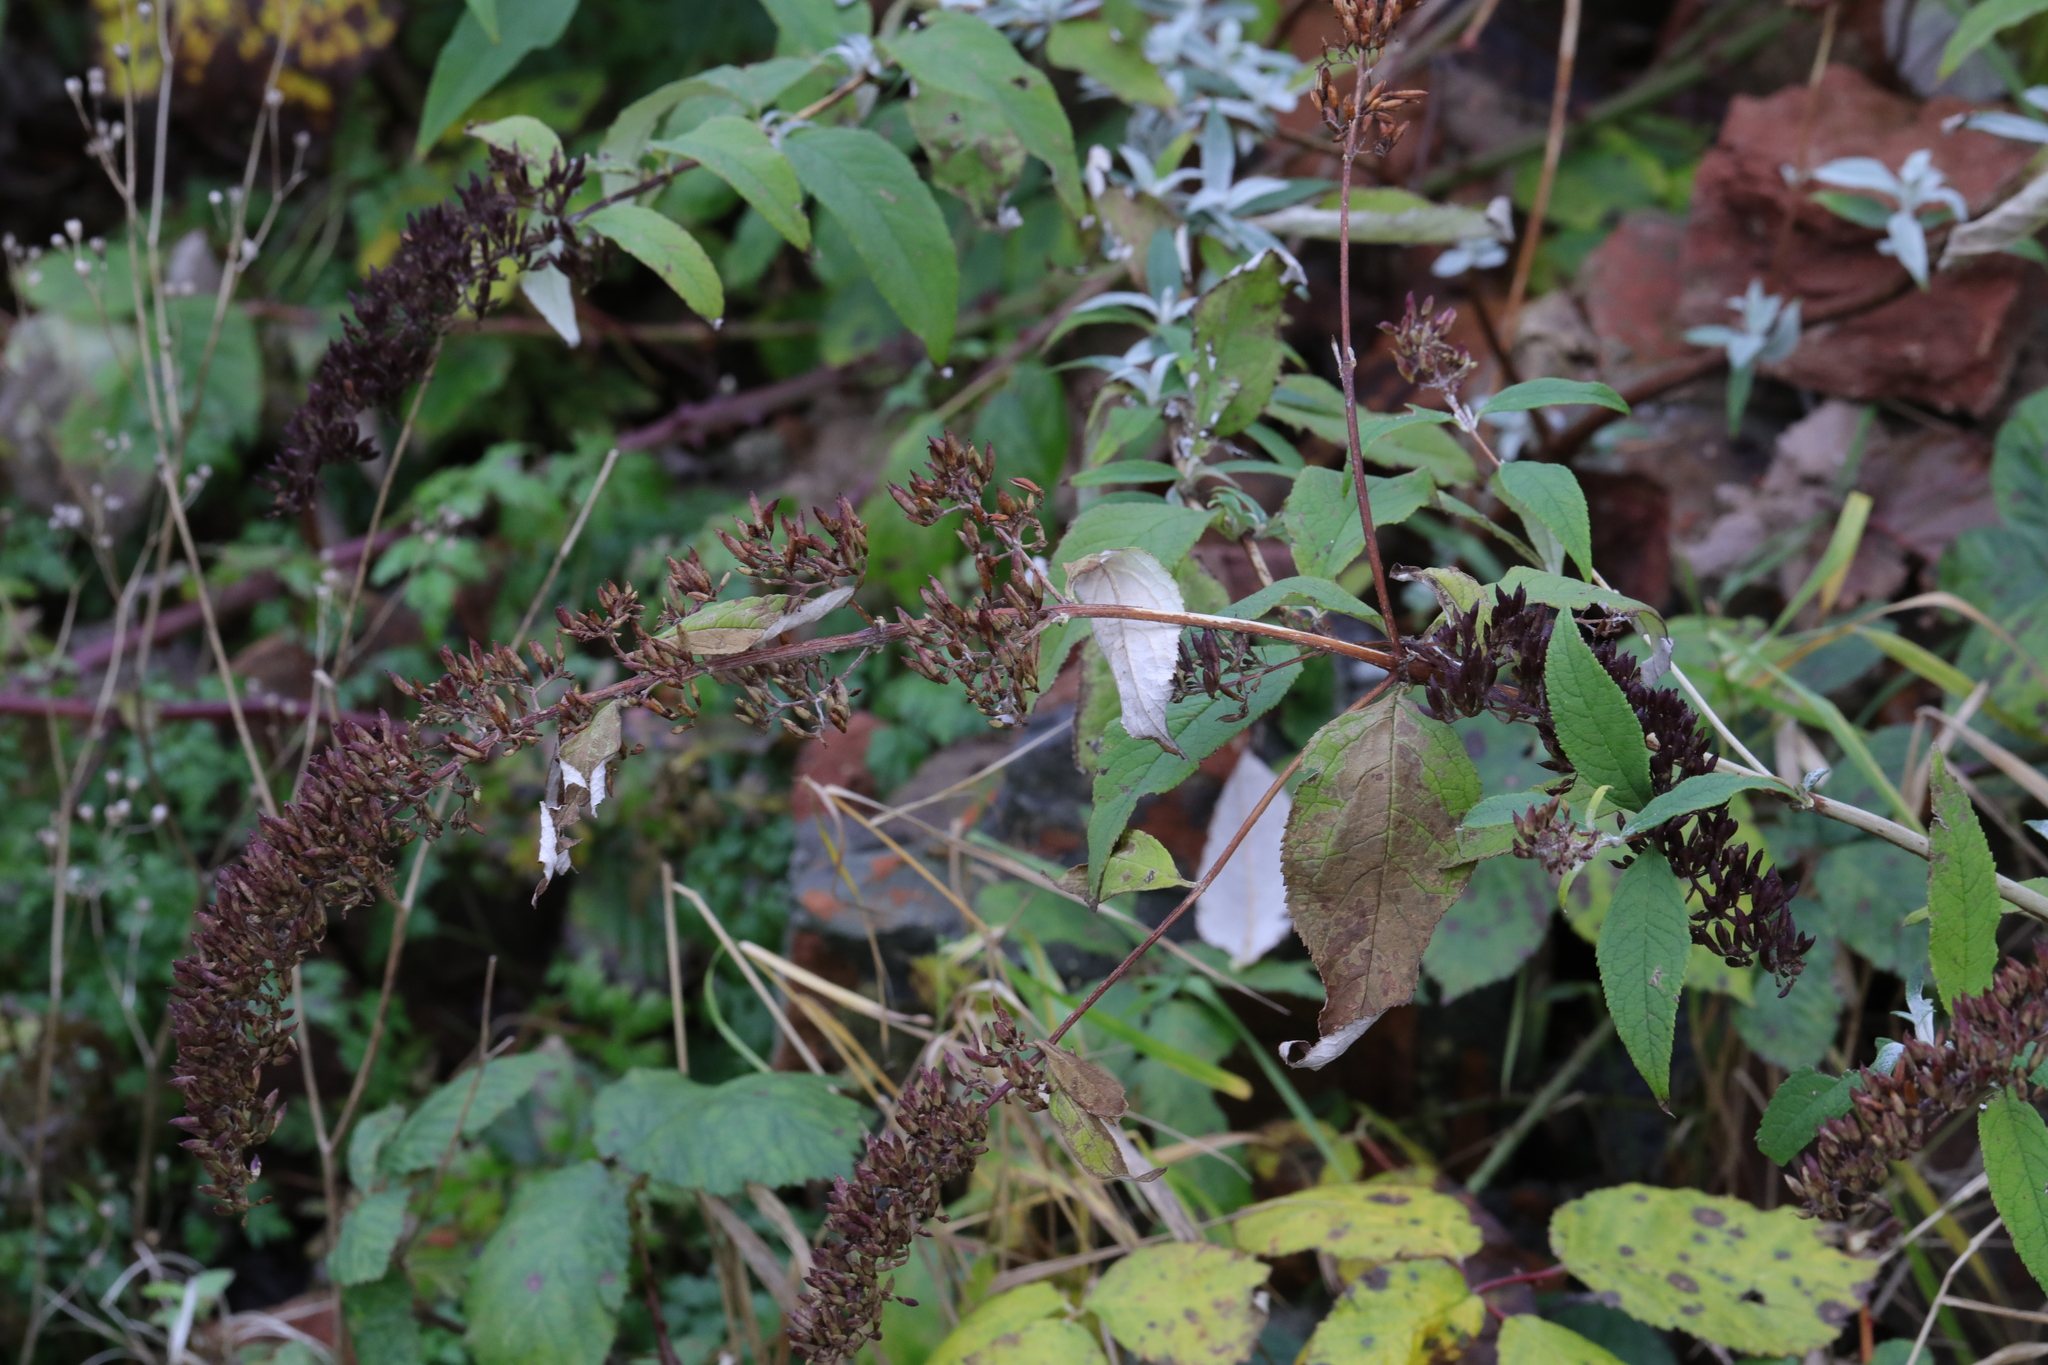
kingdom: Plantae
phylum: Tracheophyta
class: Magnoliopsida
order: Lamiales
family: Scrophulariaceae
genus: Buddleja
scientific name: Buddleja davidii
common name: Butterfly-bush
